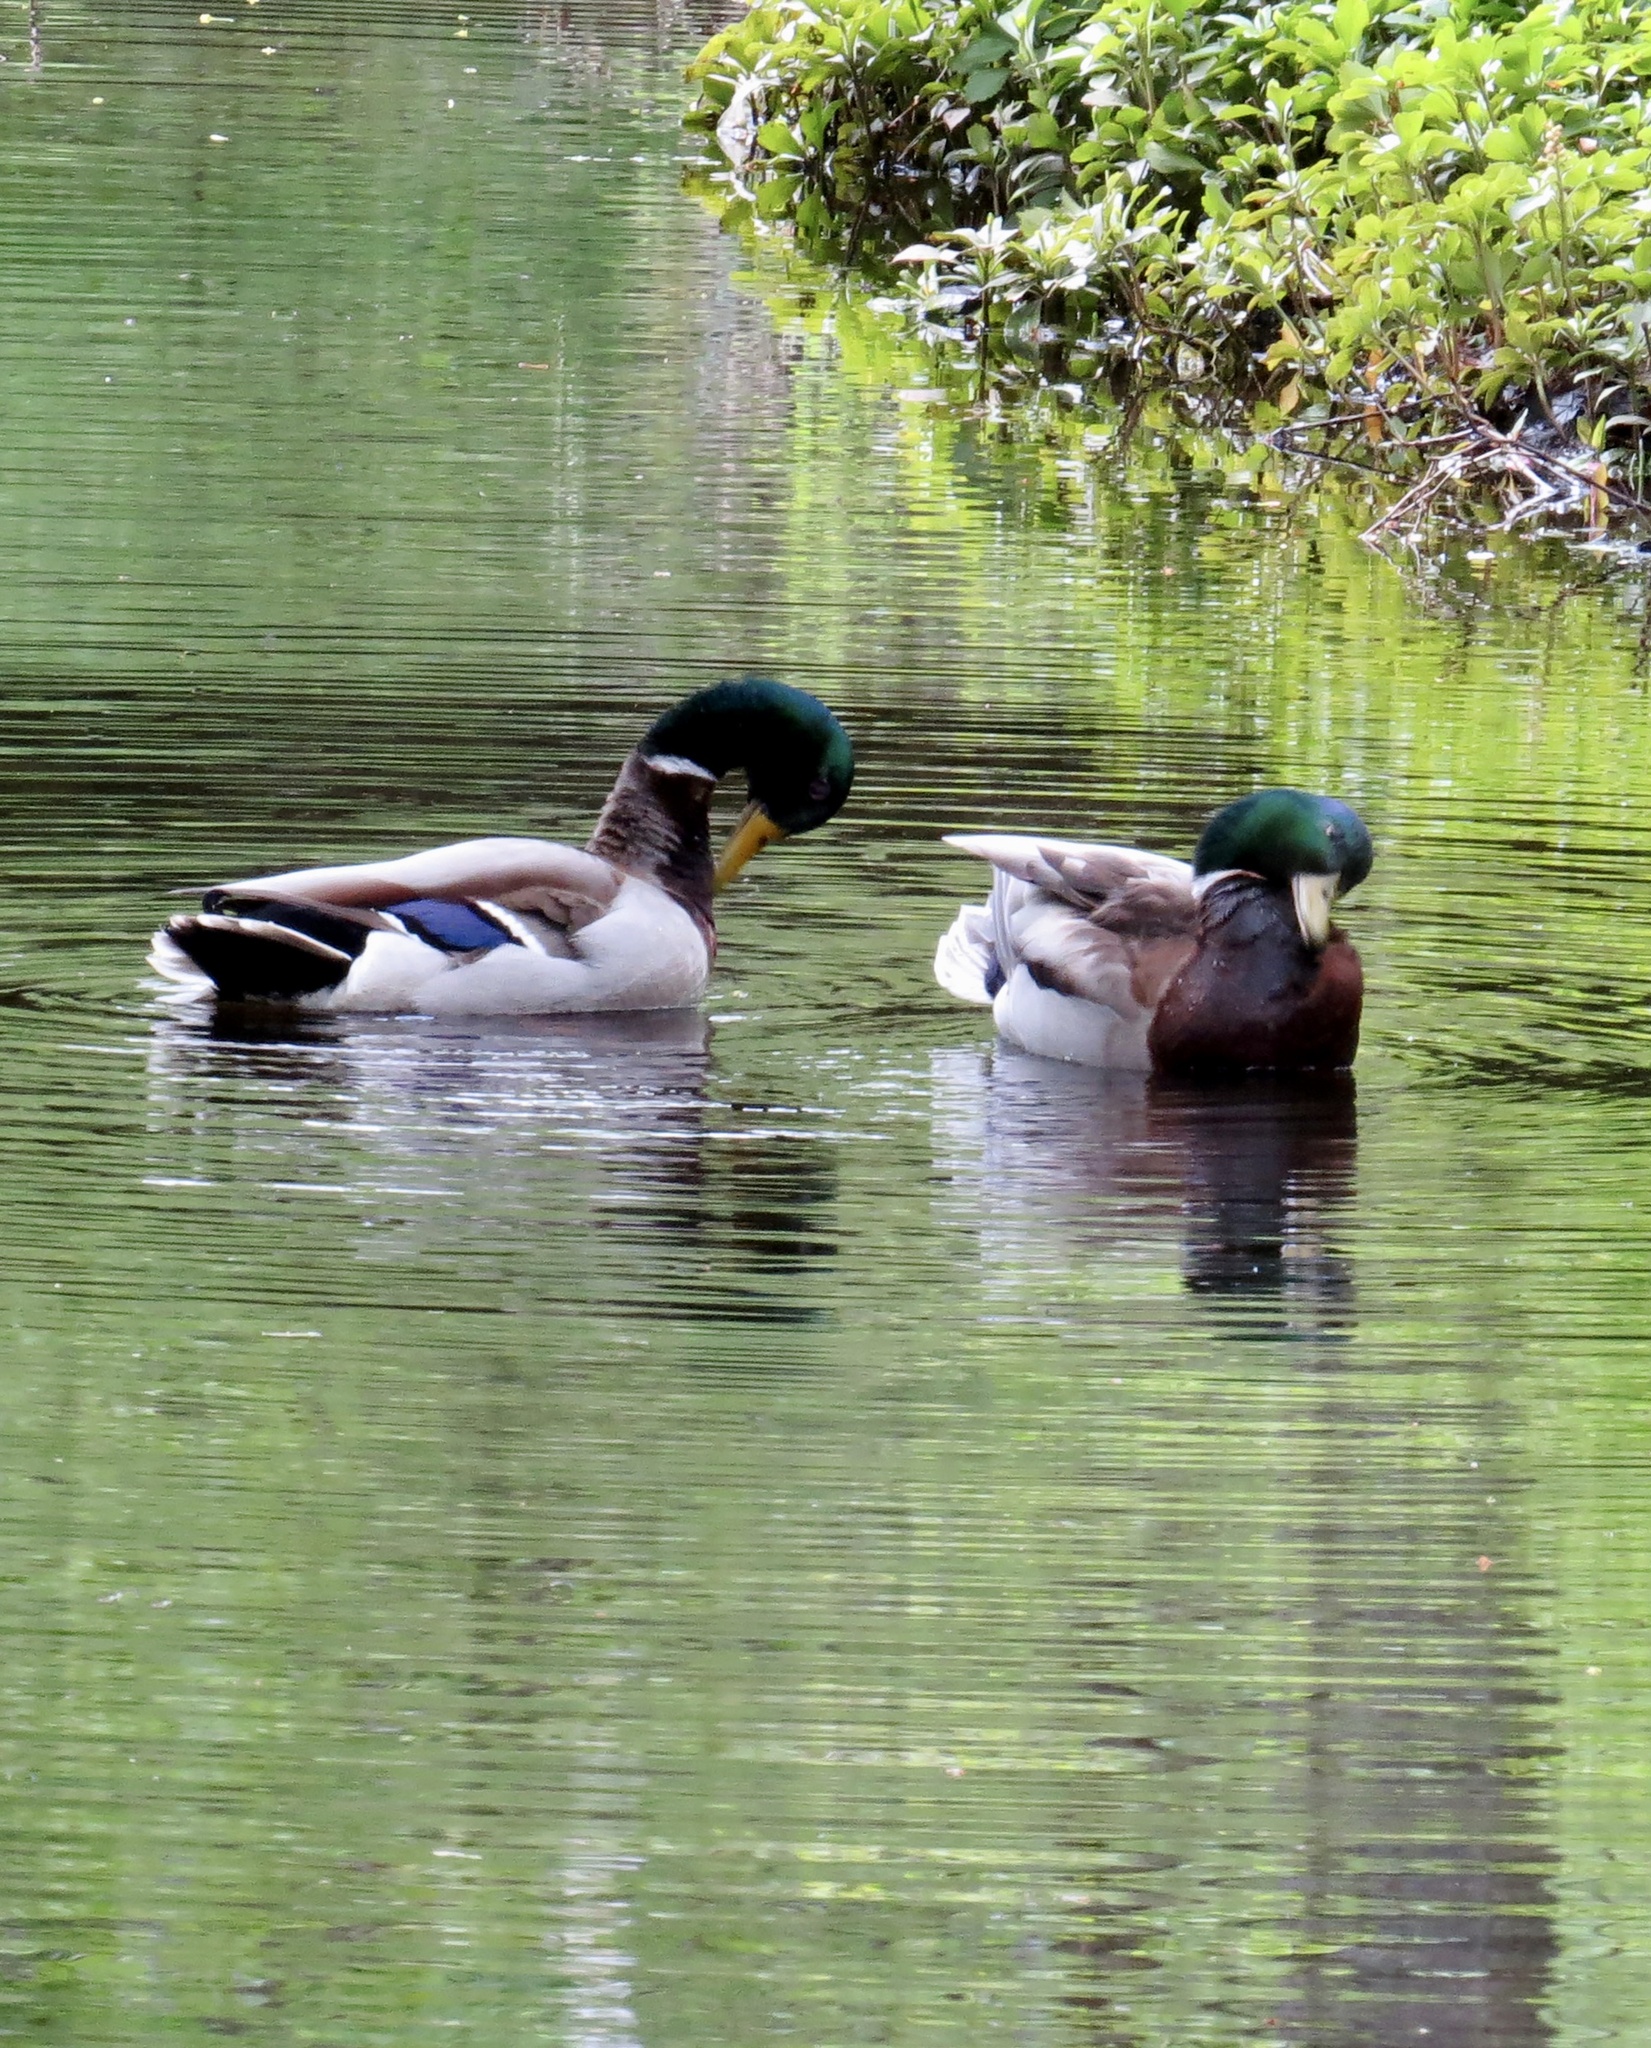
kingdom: Animalia
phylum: Chordata
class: Aves
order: Anseriformes
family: Anatidae
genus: Anas
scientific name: Anas platyrhynchos
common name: Mallard
